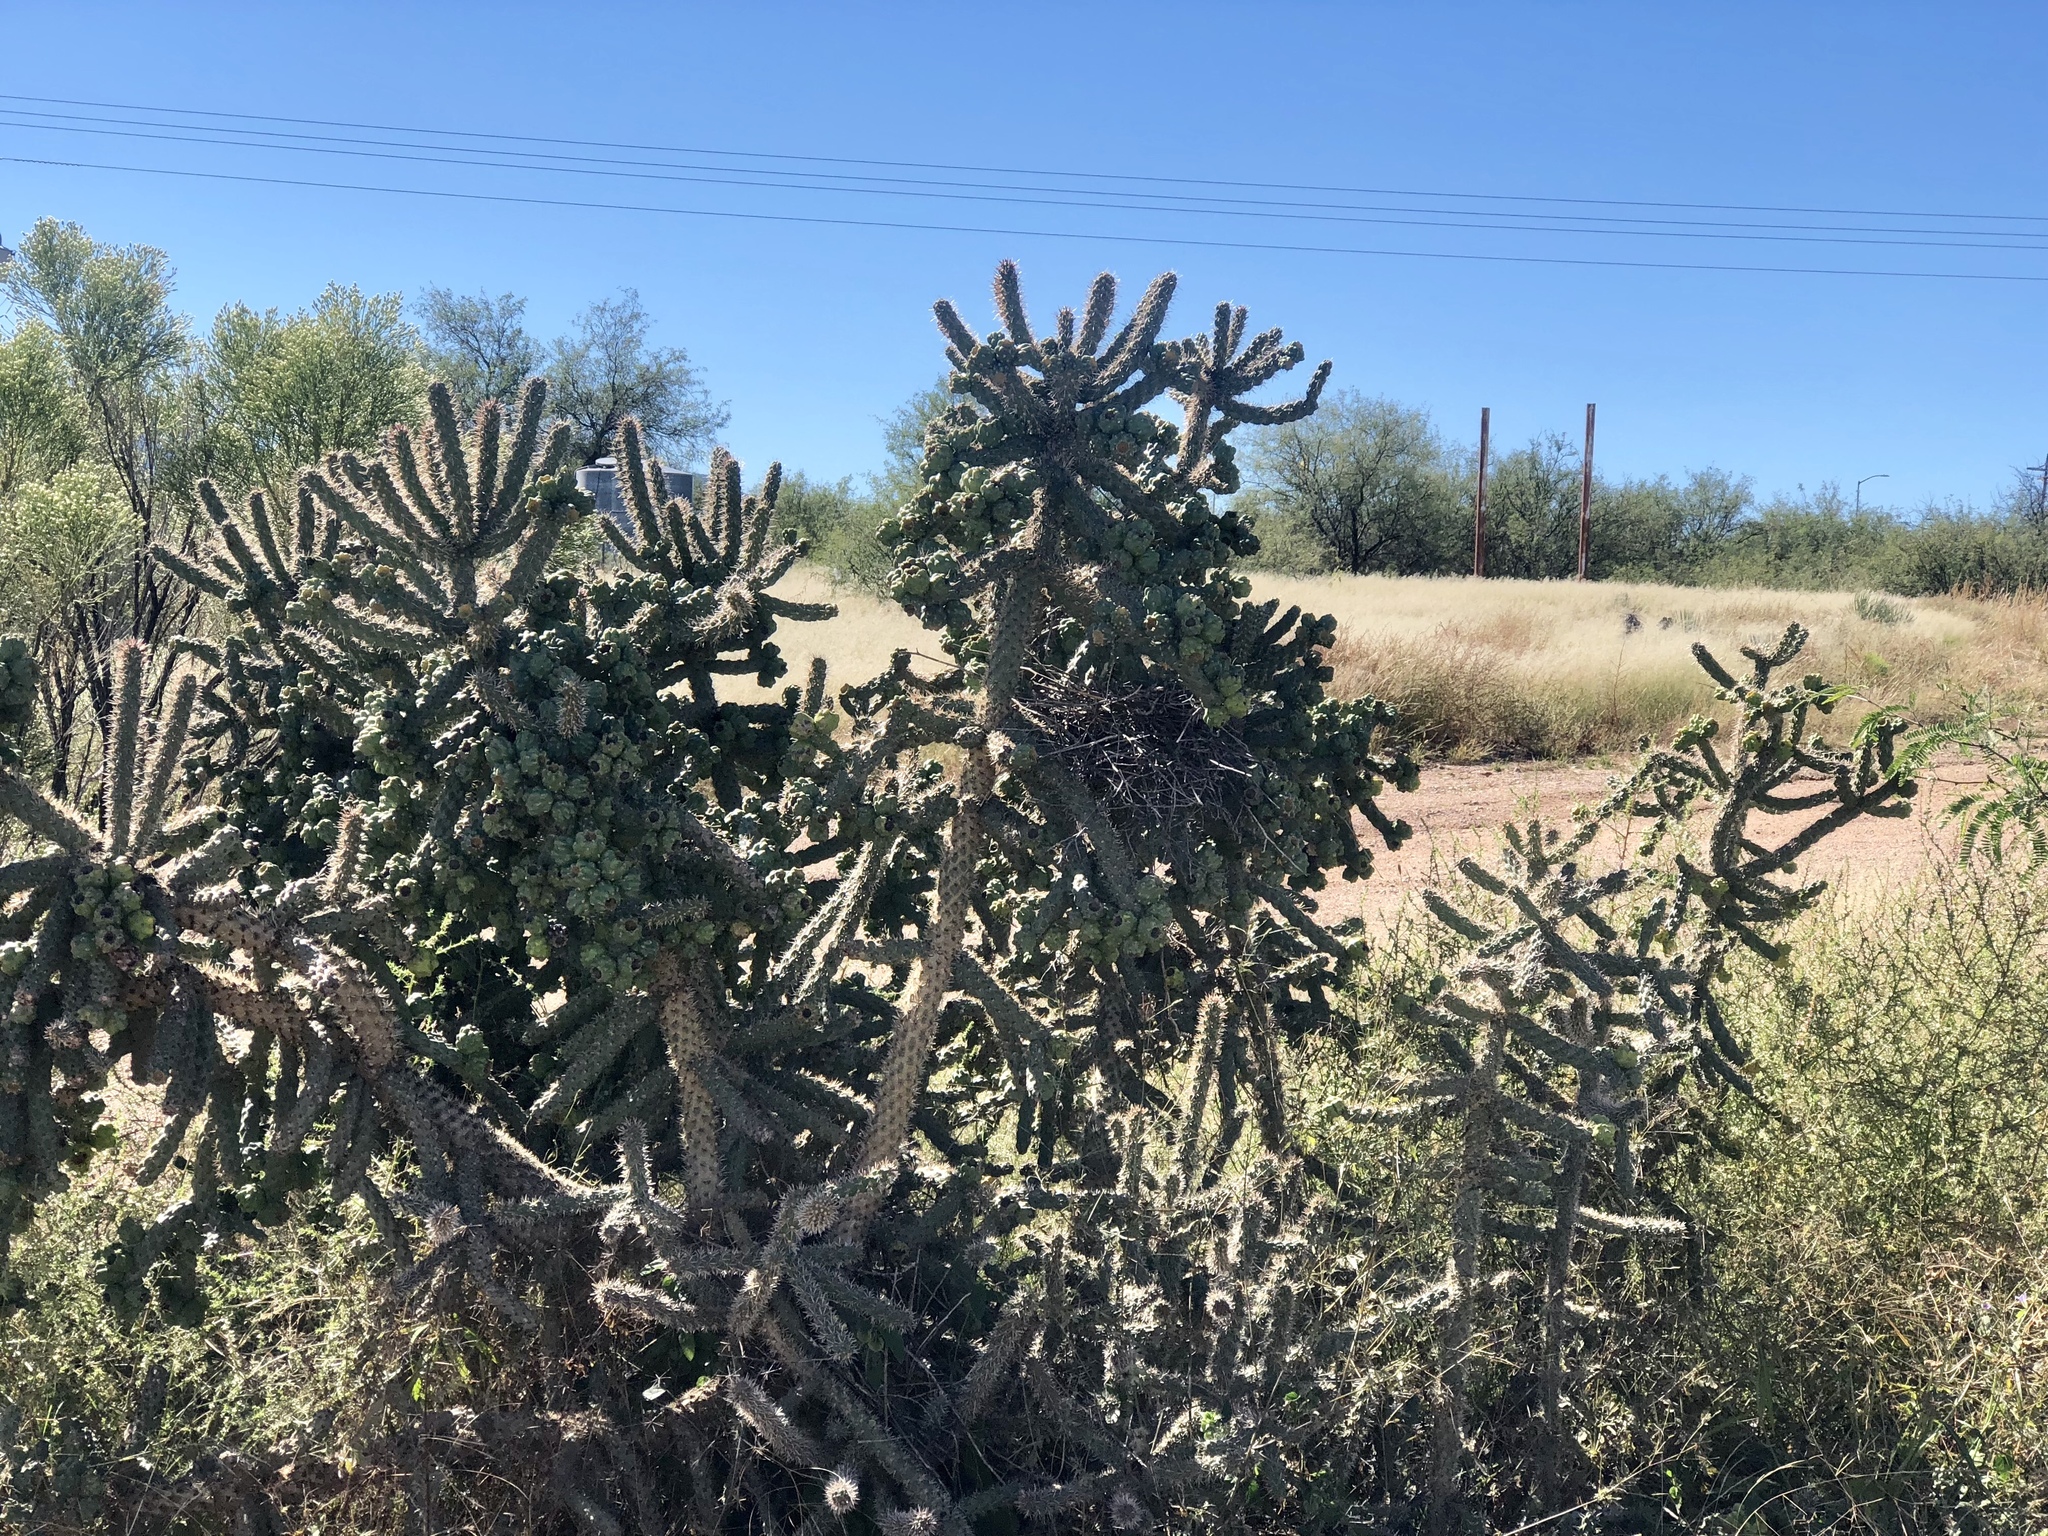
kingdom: Plantae
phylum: Tracheophyta
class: Magnoliopsida
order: Caryophyllales
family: Cactaceae
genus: Cylindropuntia
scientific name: Cylindropuntia imbricata
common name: Candelabrum cactus
